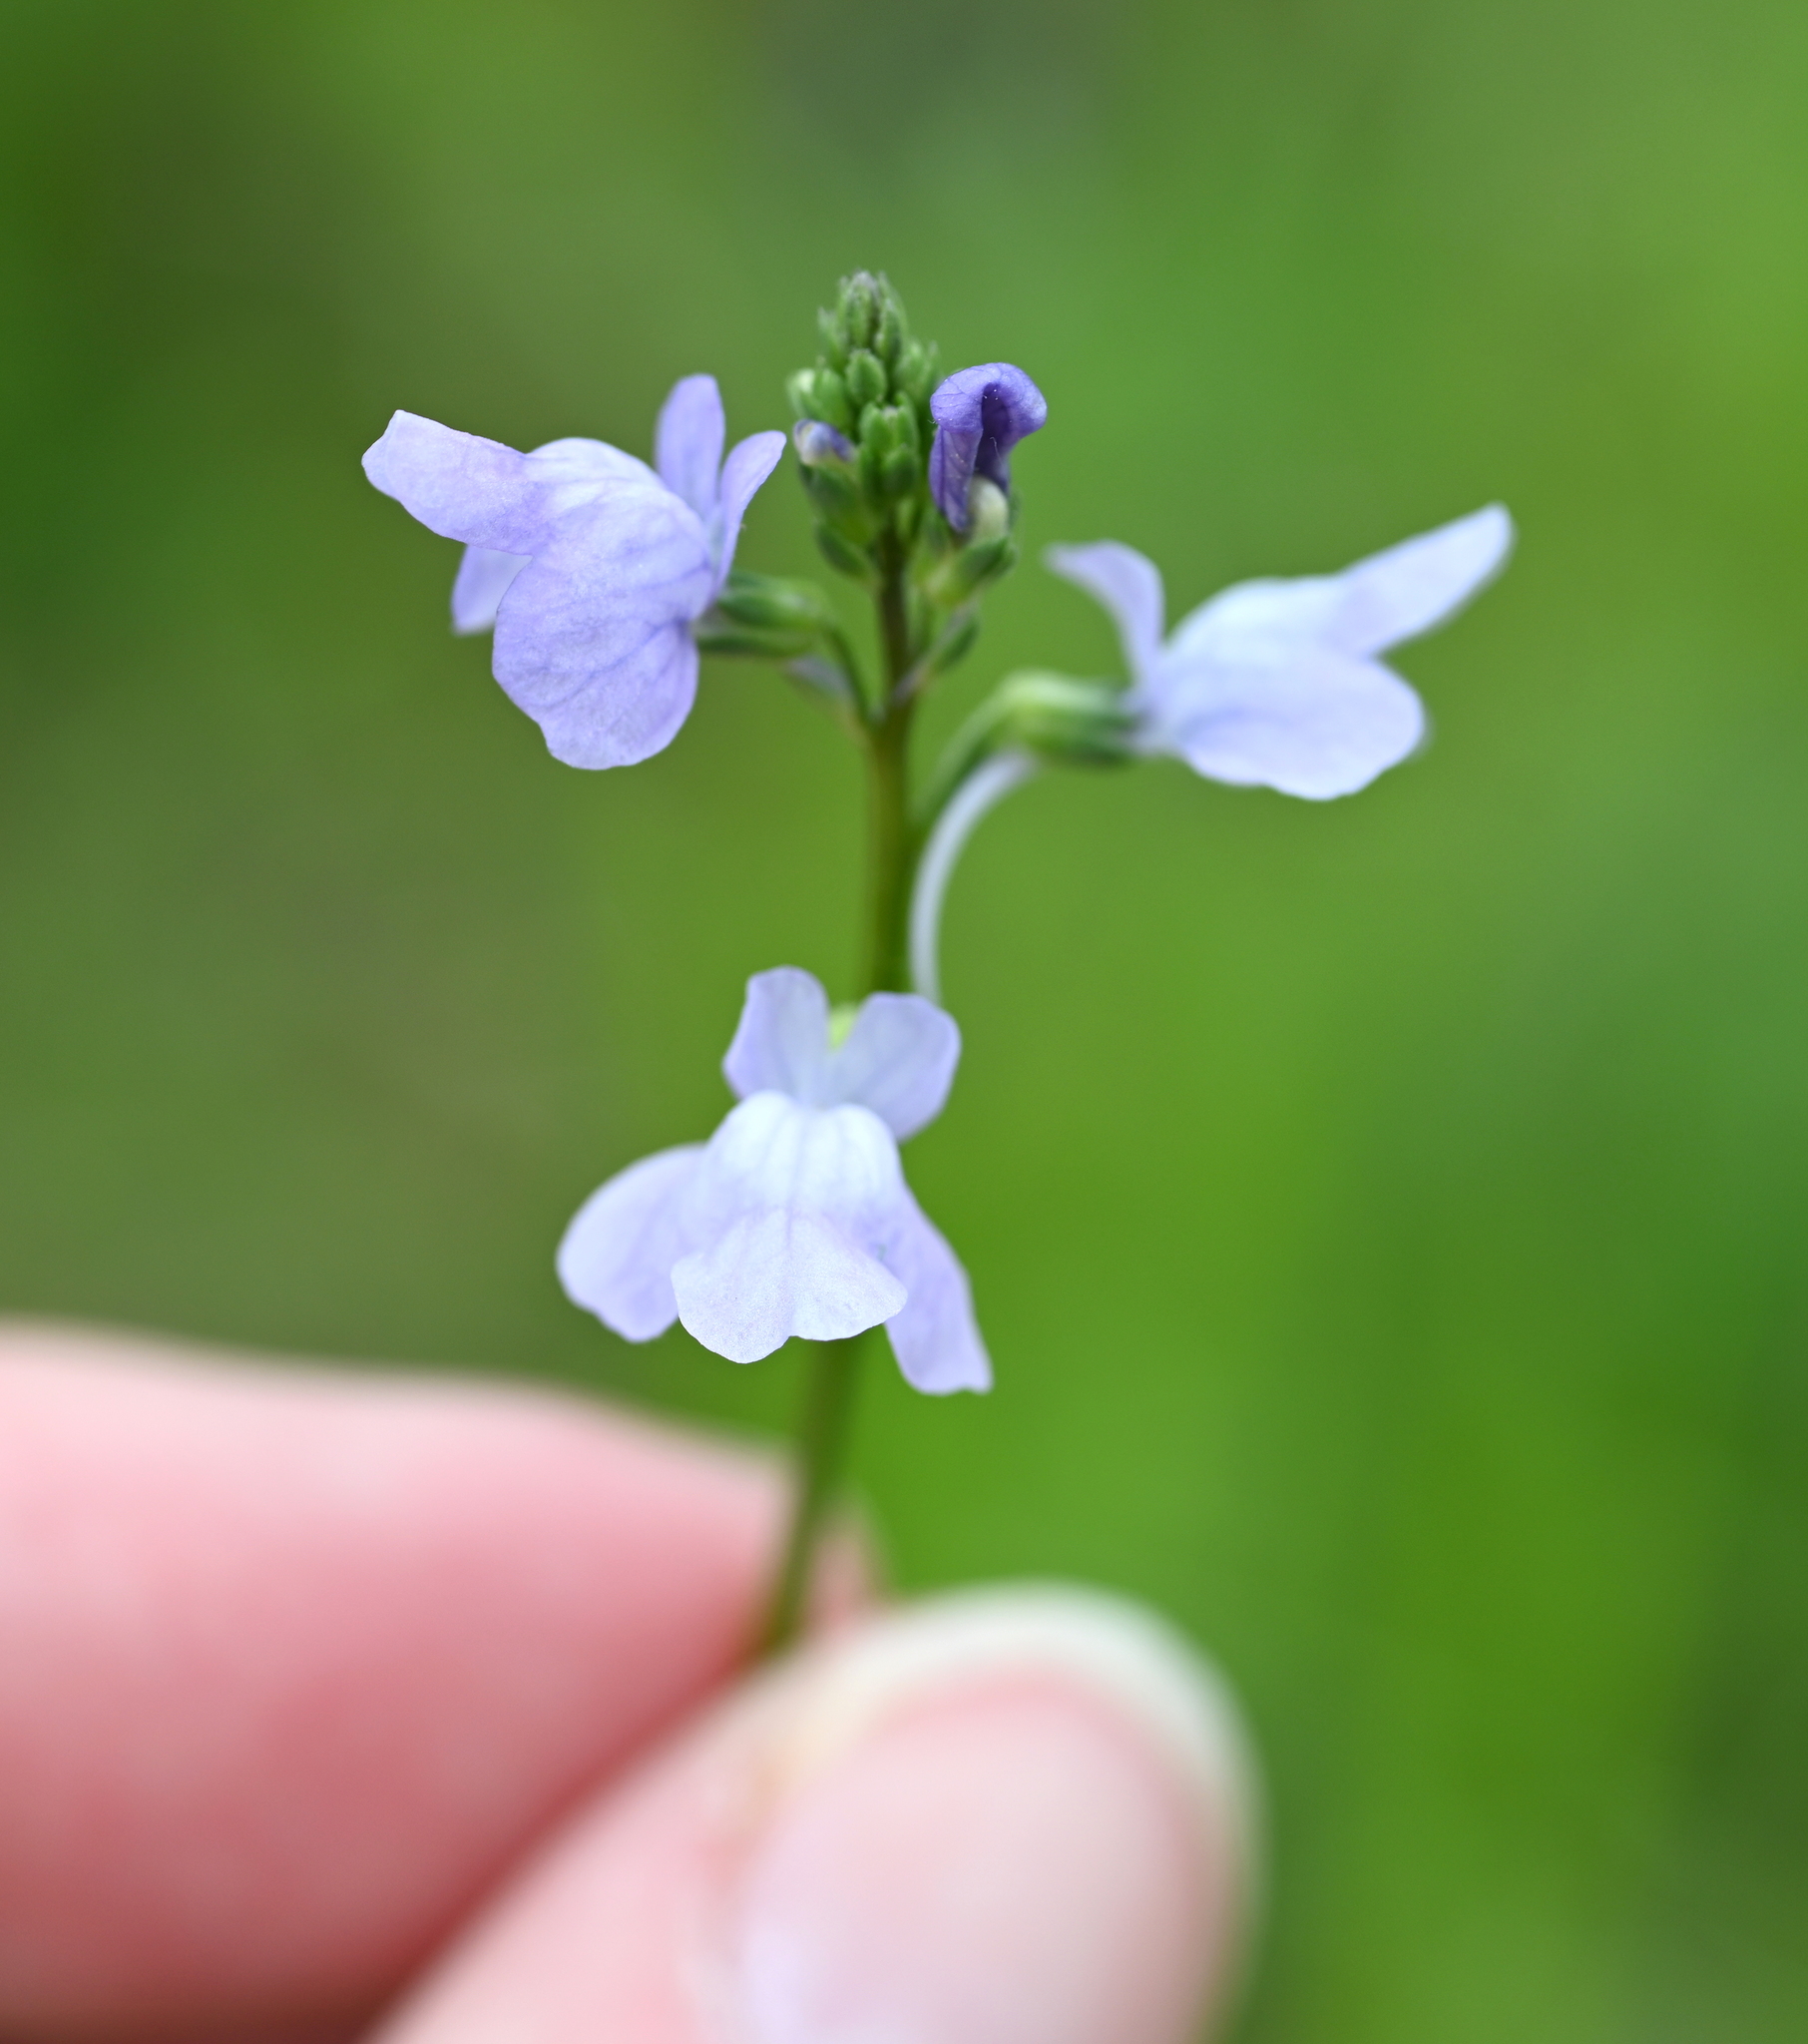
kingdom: Plantae
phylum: Tracheophyta
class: Magnoliopsida
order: Lamiales
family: Plantaginaceae
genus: Nuttallanthus
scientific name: Nuttallanthus texanus
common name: Texas toadflax
